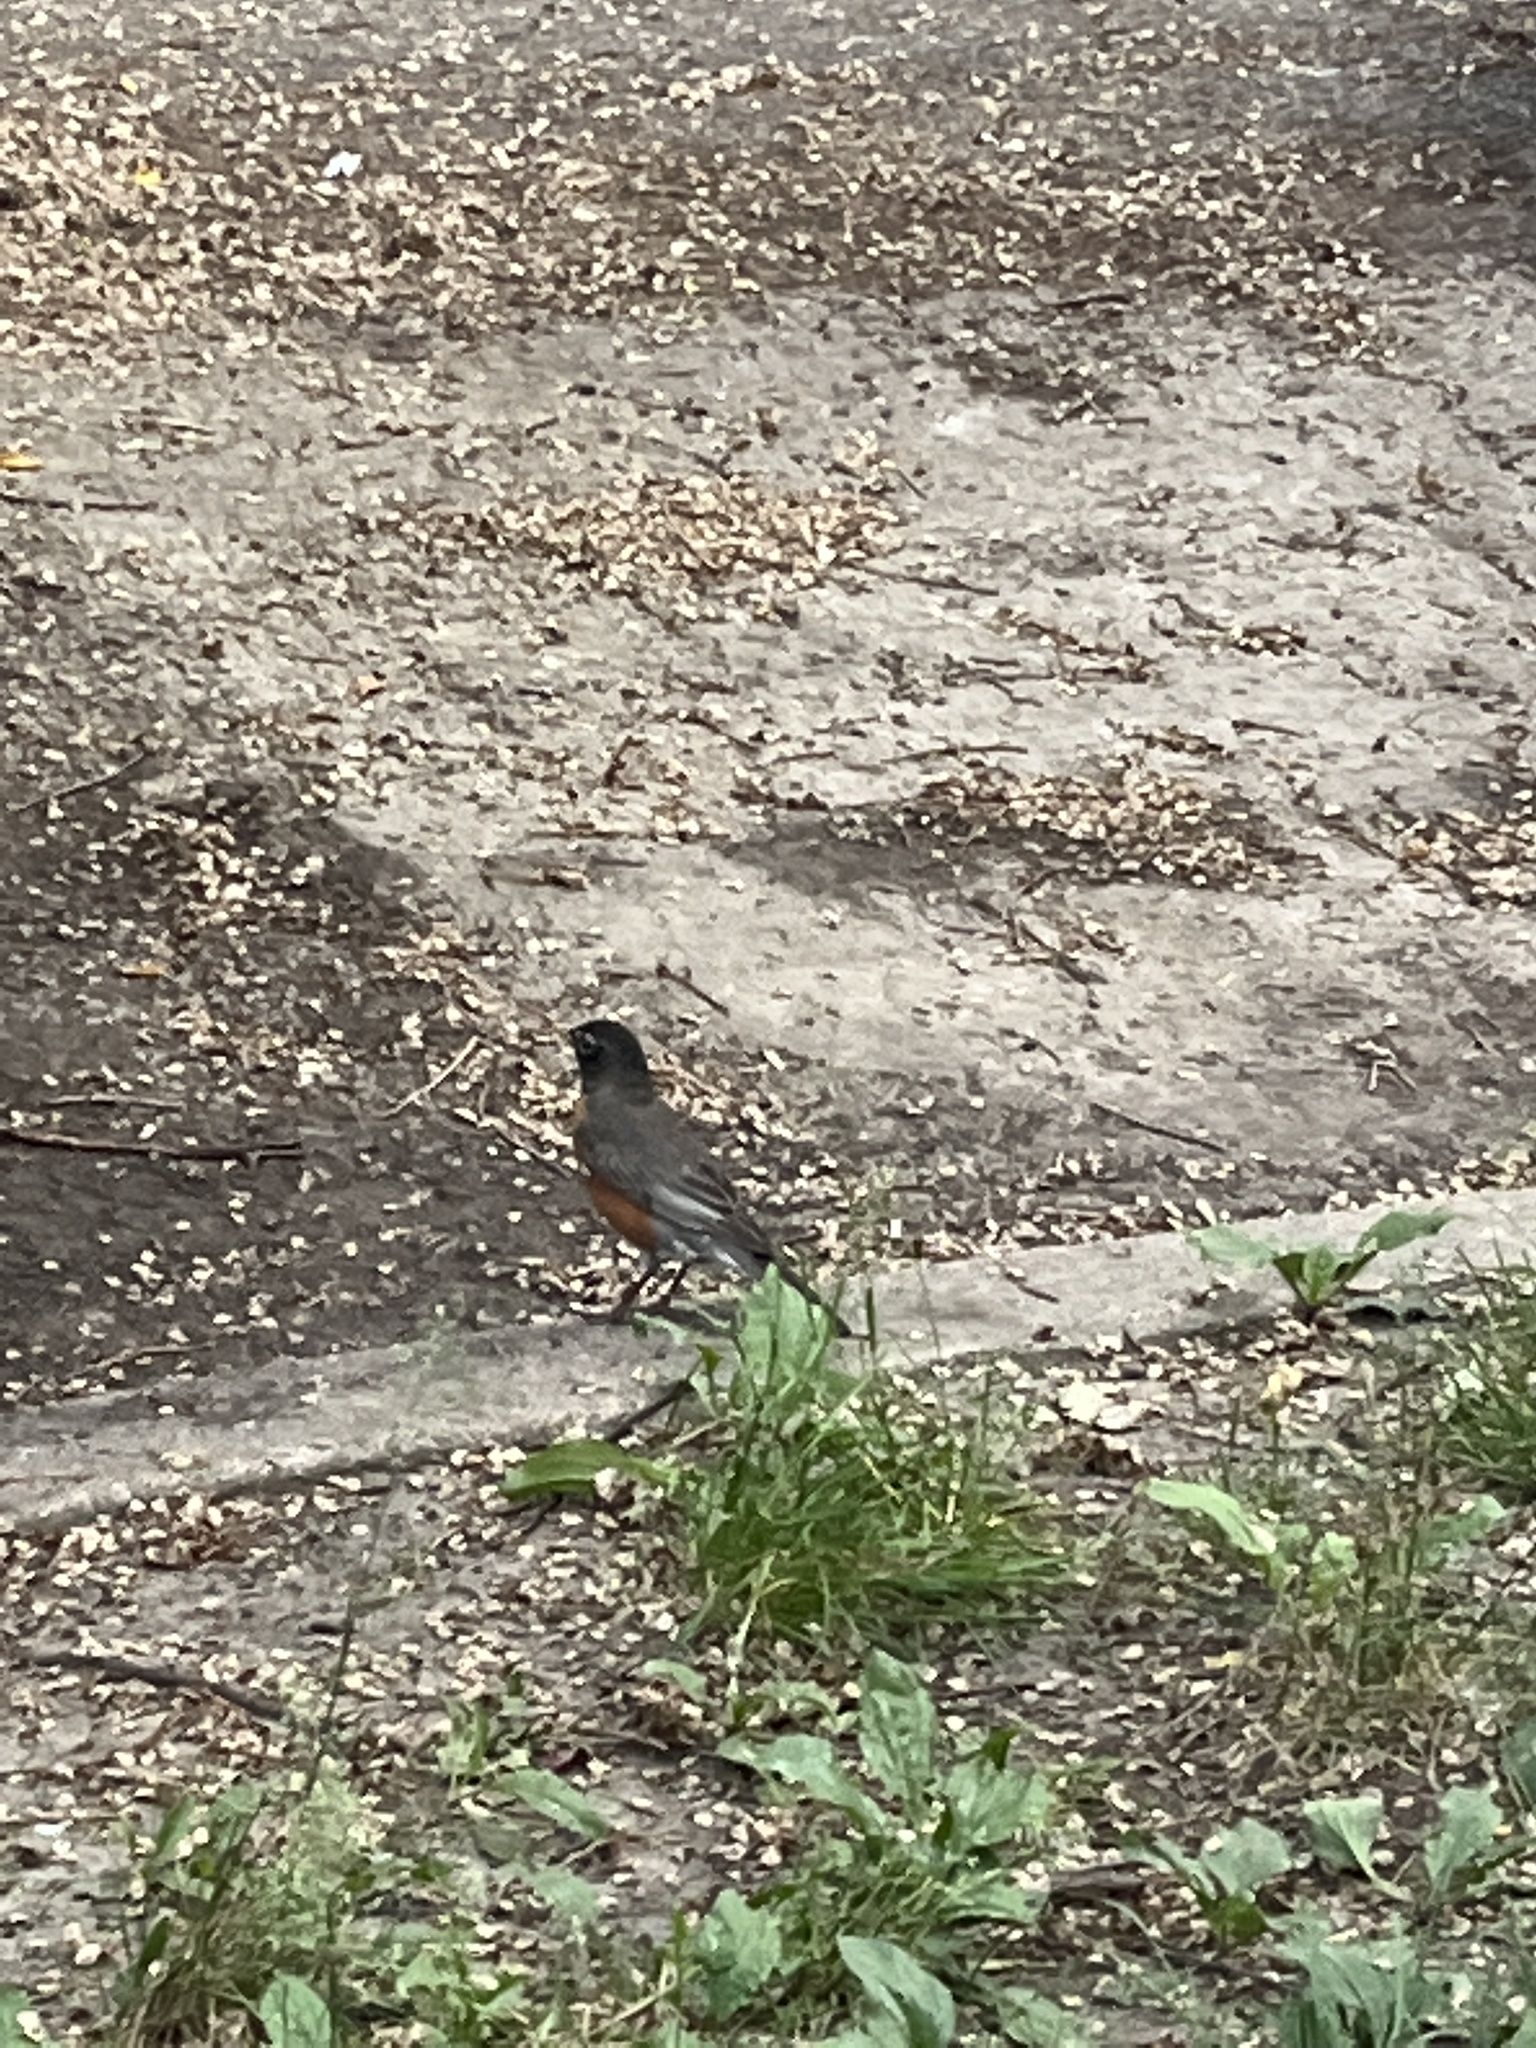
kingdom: Animalia
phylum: Chordata
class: Aves
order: Passeriformes
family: Turdidae
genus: Turdus
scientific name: Turdus migratorius
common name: American robin
